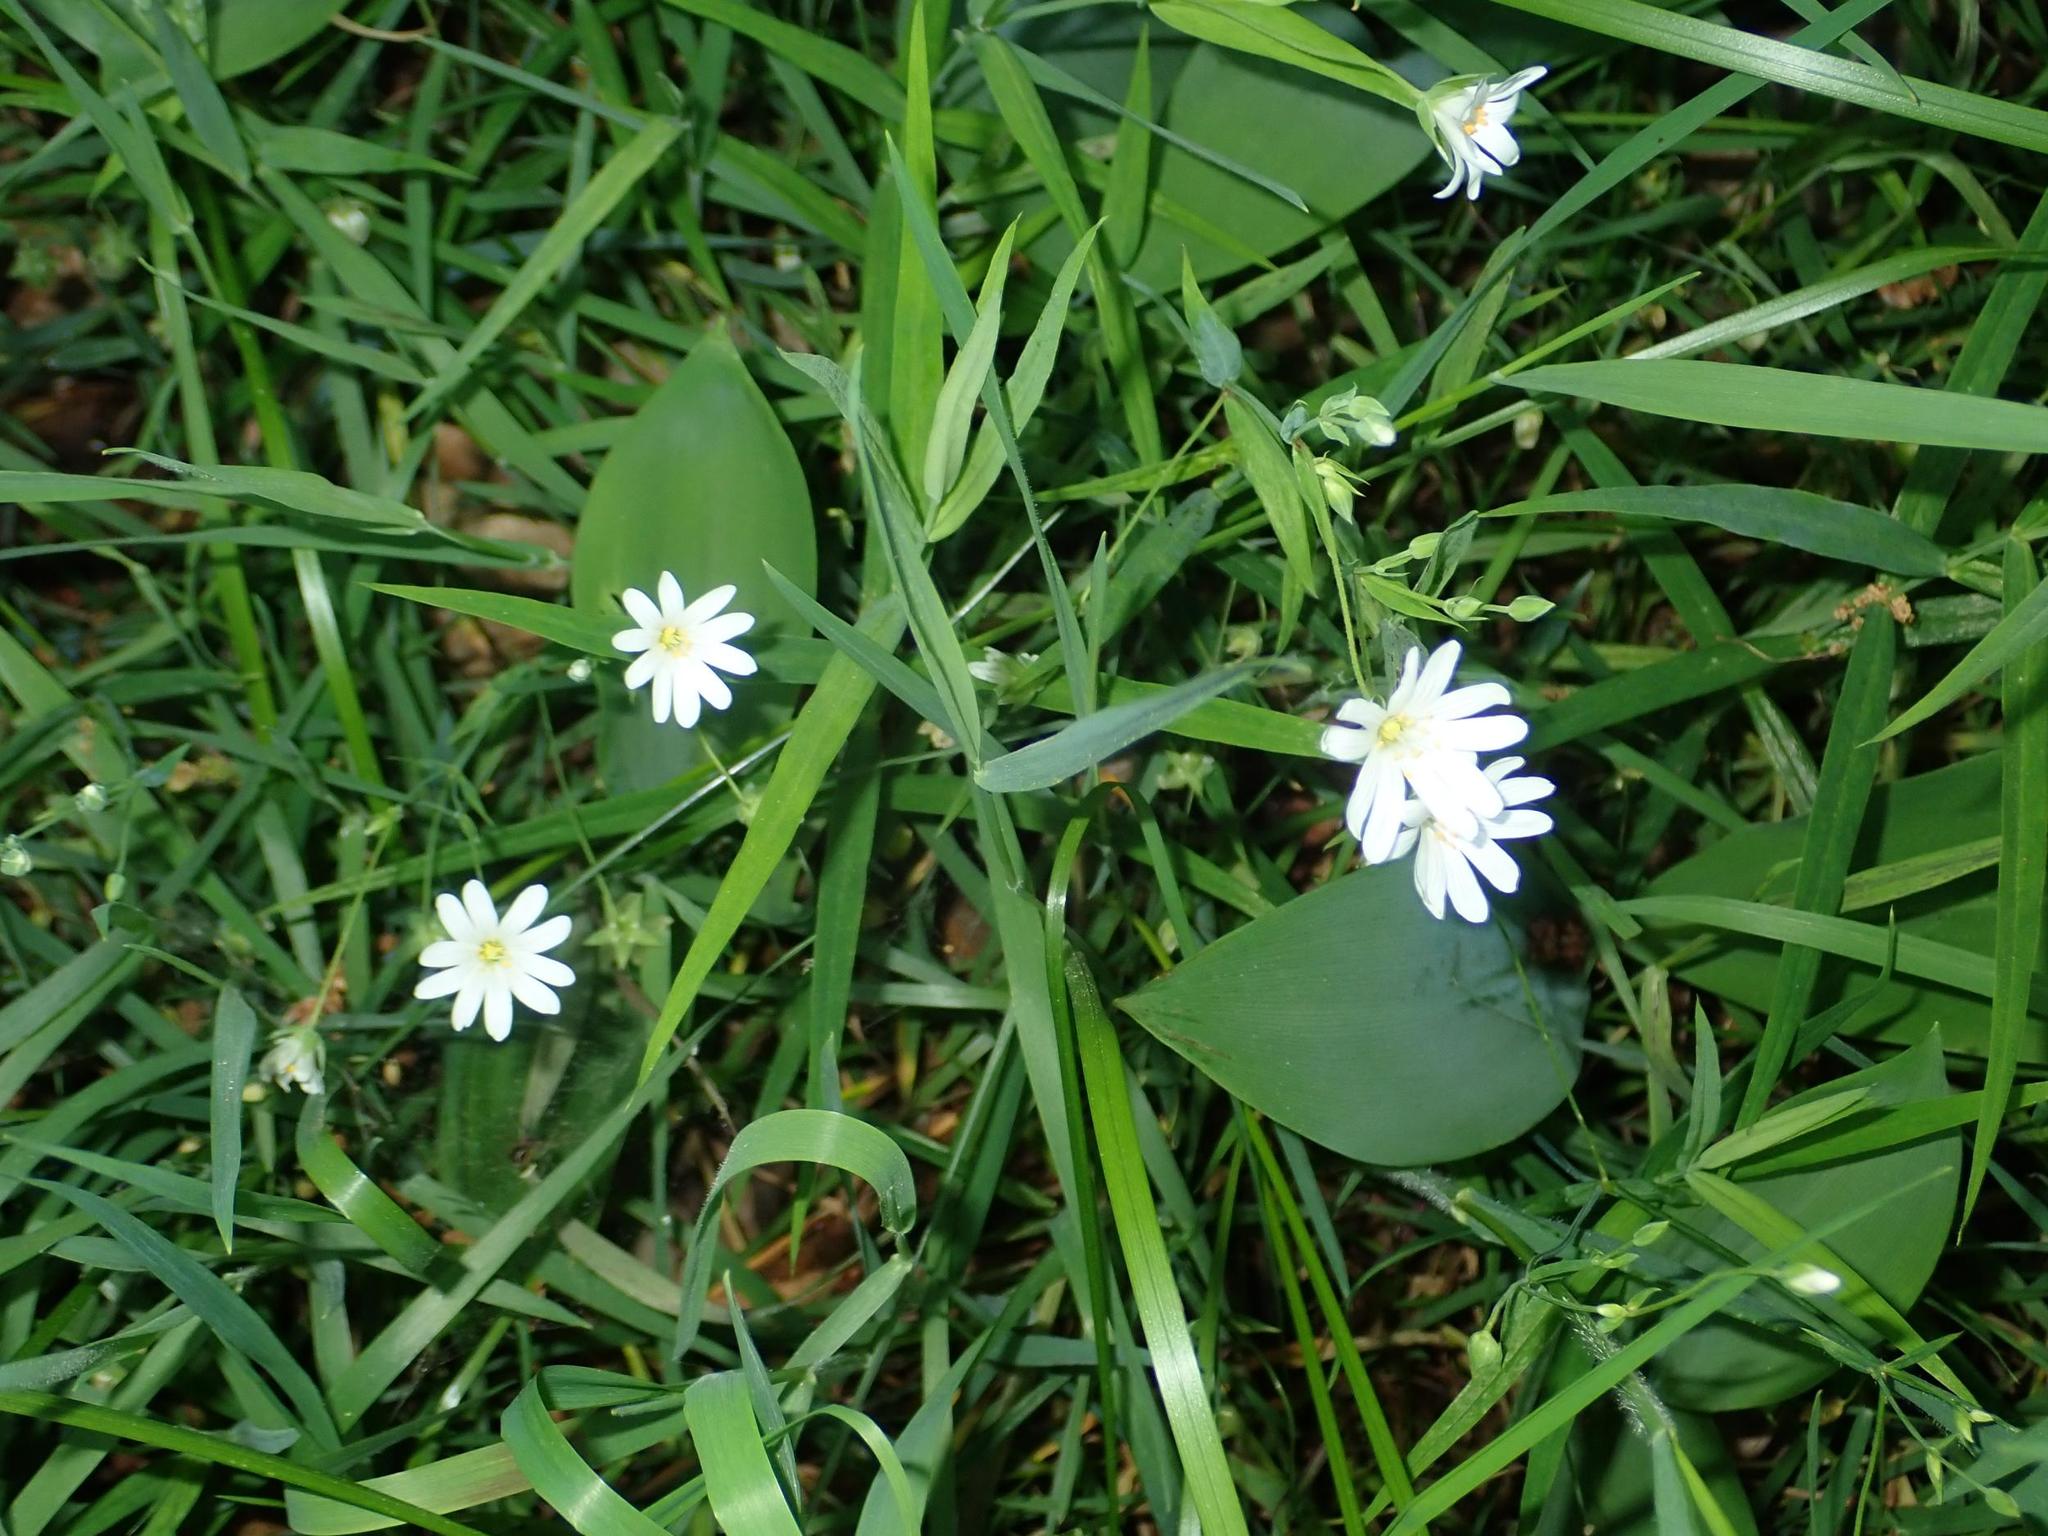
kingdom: Plantae
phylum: Tracheophyta
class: Magnoliopsida
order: Caryophyllales
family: Caryophyllaceae
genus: Rabelera
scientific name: Rabelera holostea
